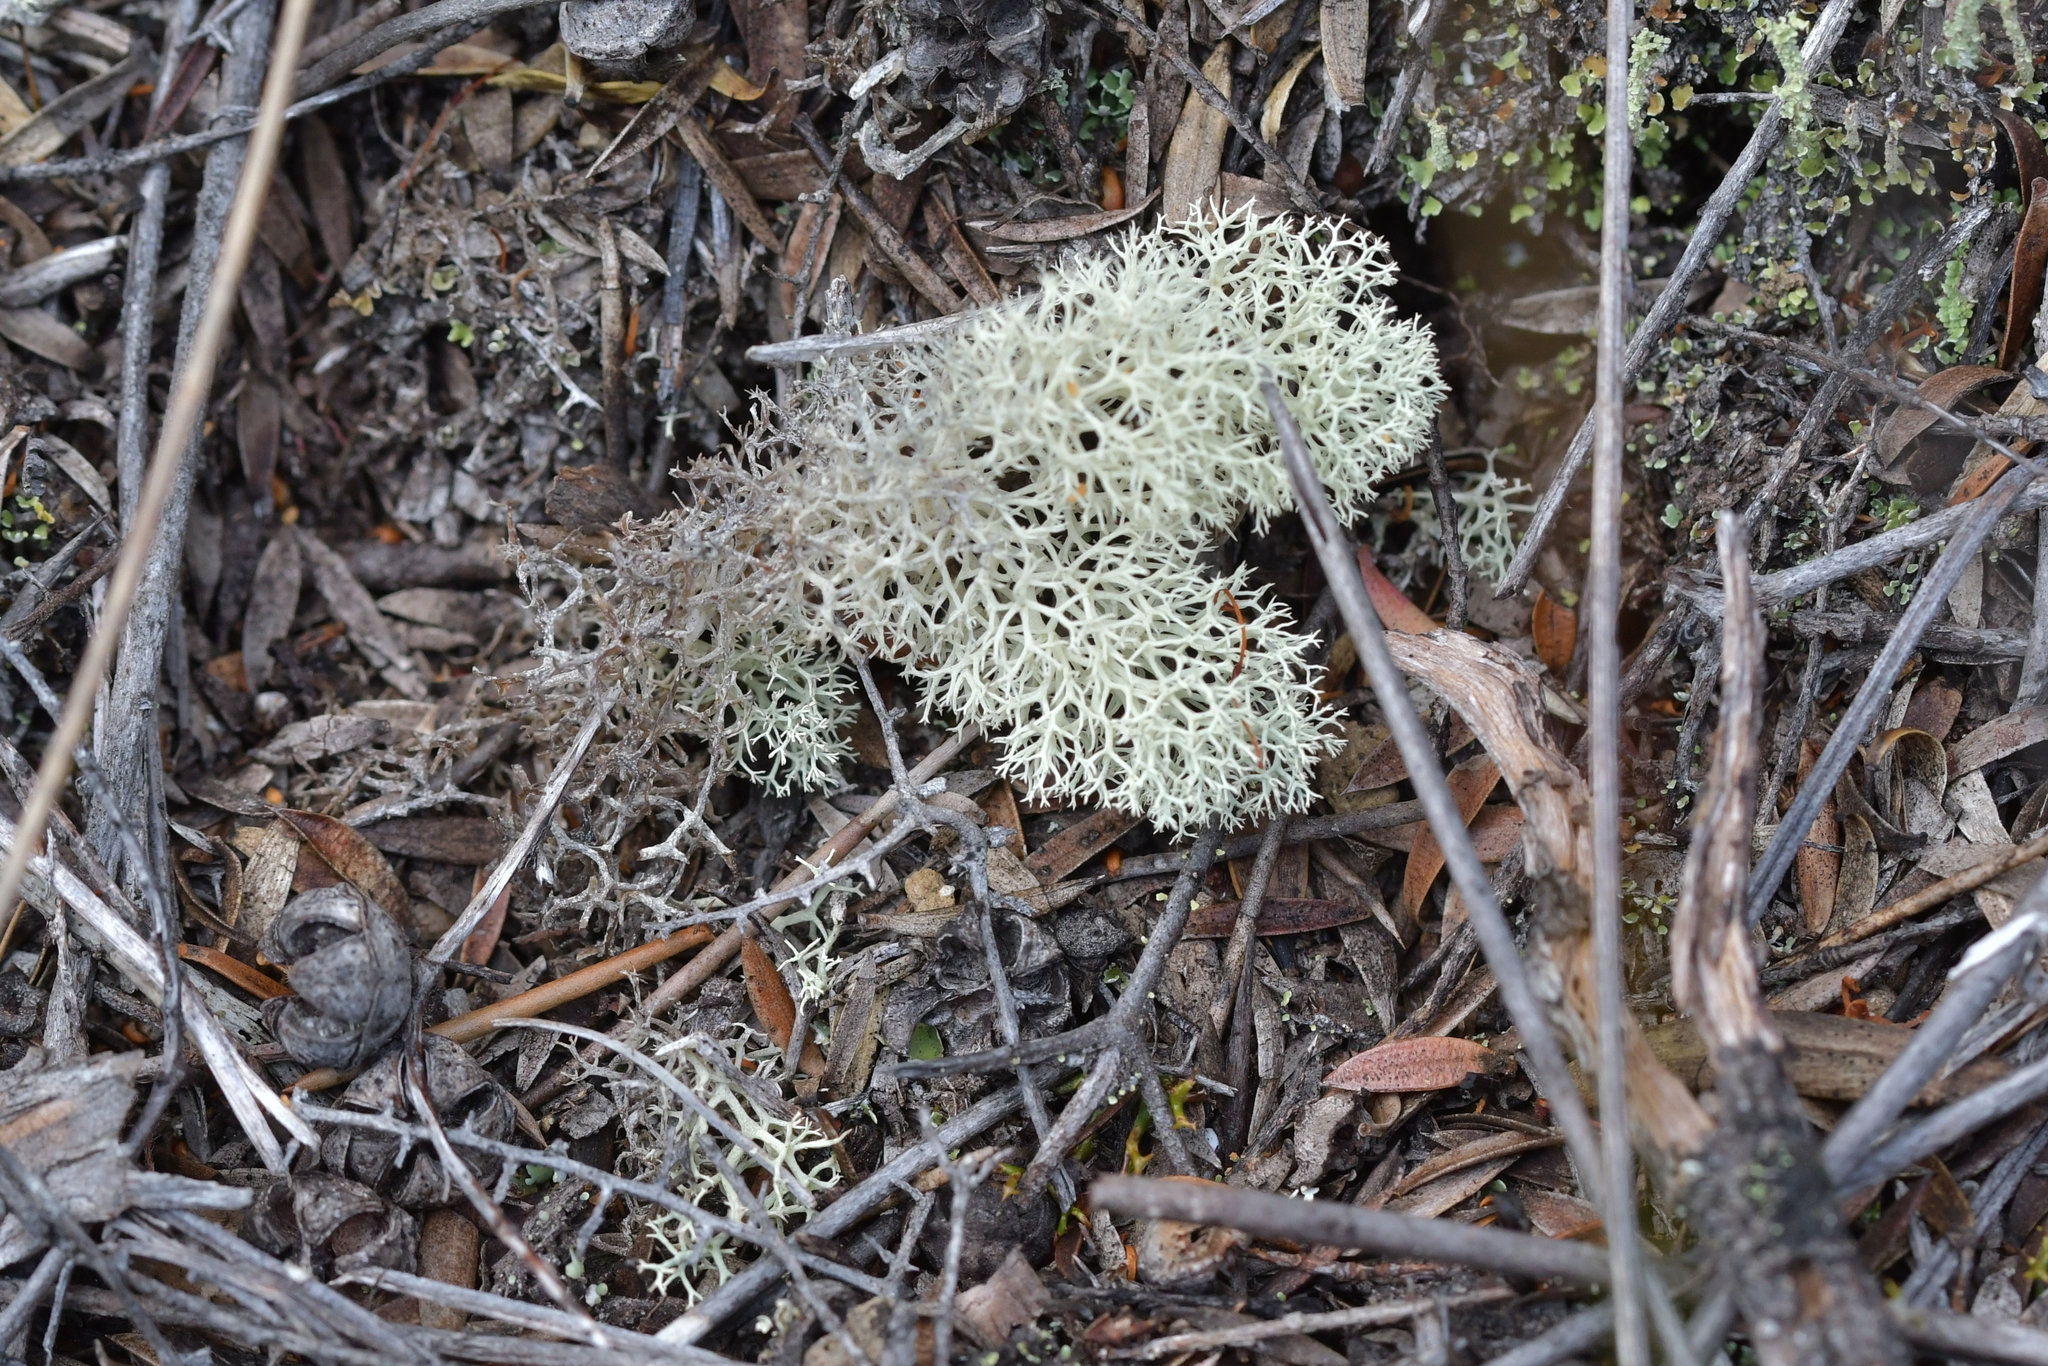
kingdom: Fungi
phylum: Ascomycota
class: Lecanoromycetes
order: Lecanorales
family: Cladoniaceae
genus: Cladonia
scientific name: Cladonia confusa
